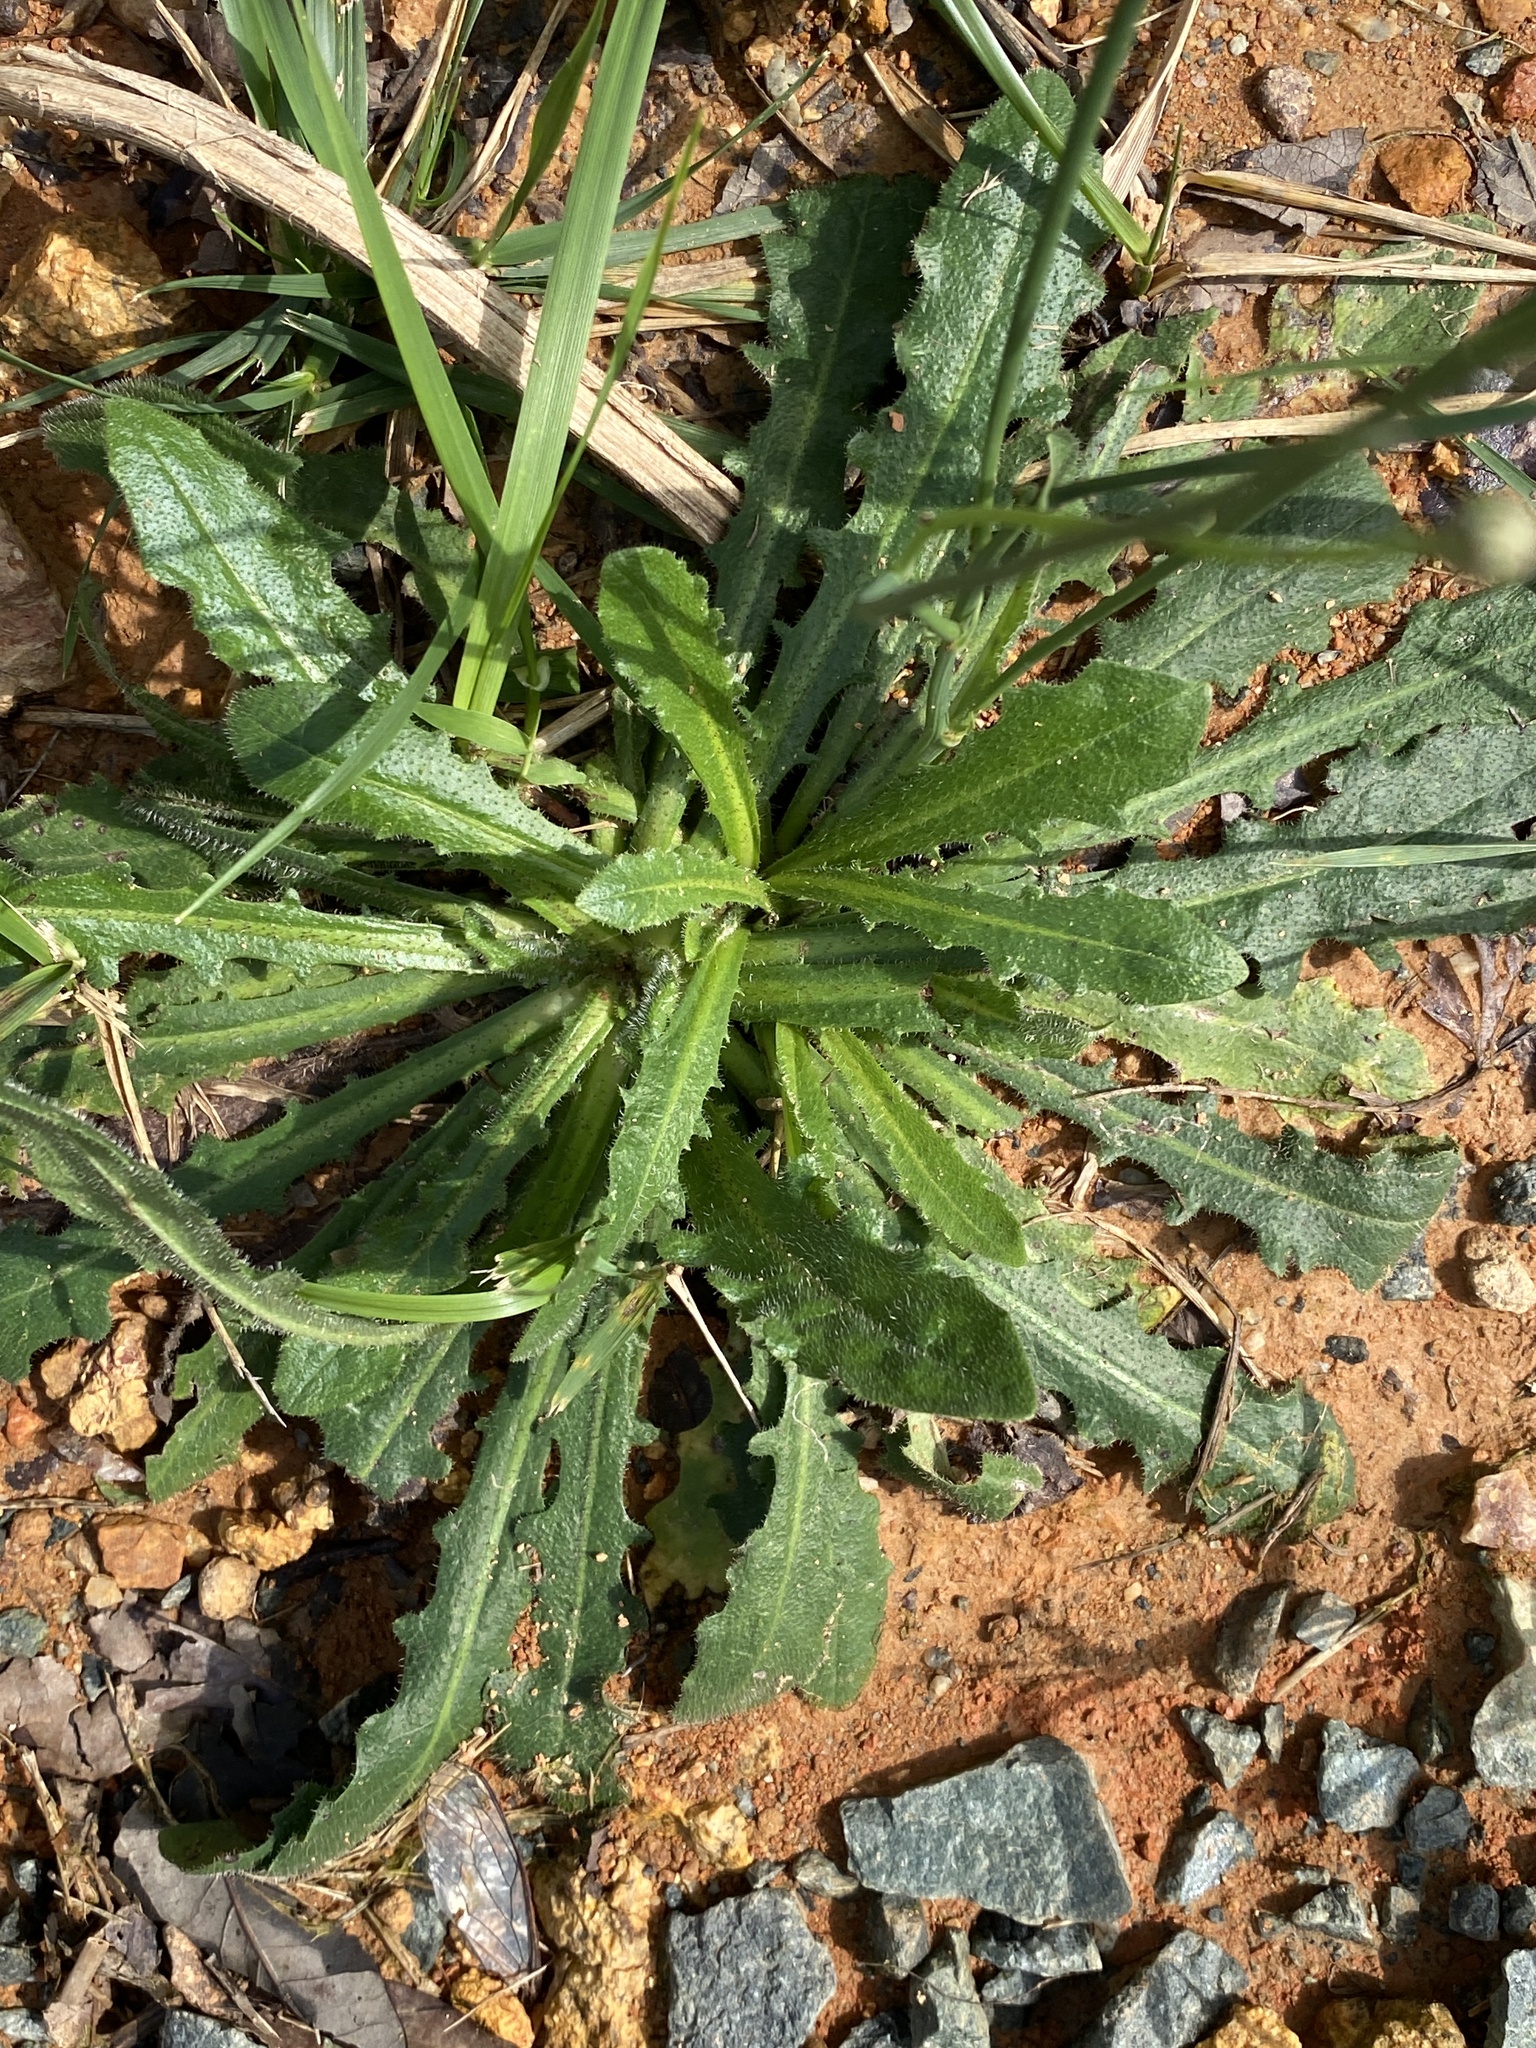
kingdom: Plantae
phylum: Tracheophyta
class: Magnoliopsida
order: Asterales
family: Asteraceae
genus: Hypochaeris
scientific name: Hypochaeris radicata
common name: Flatweed
